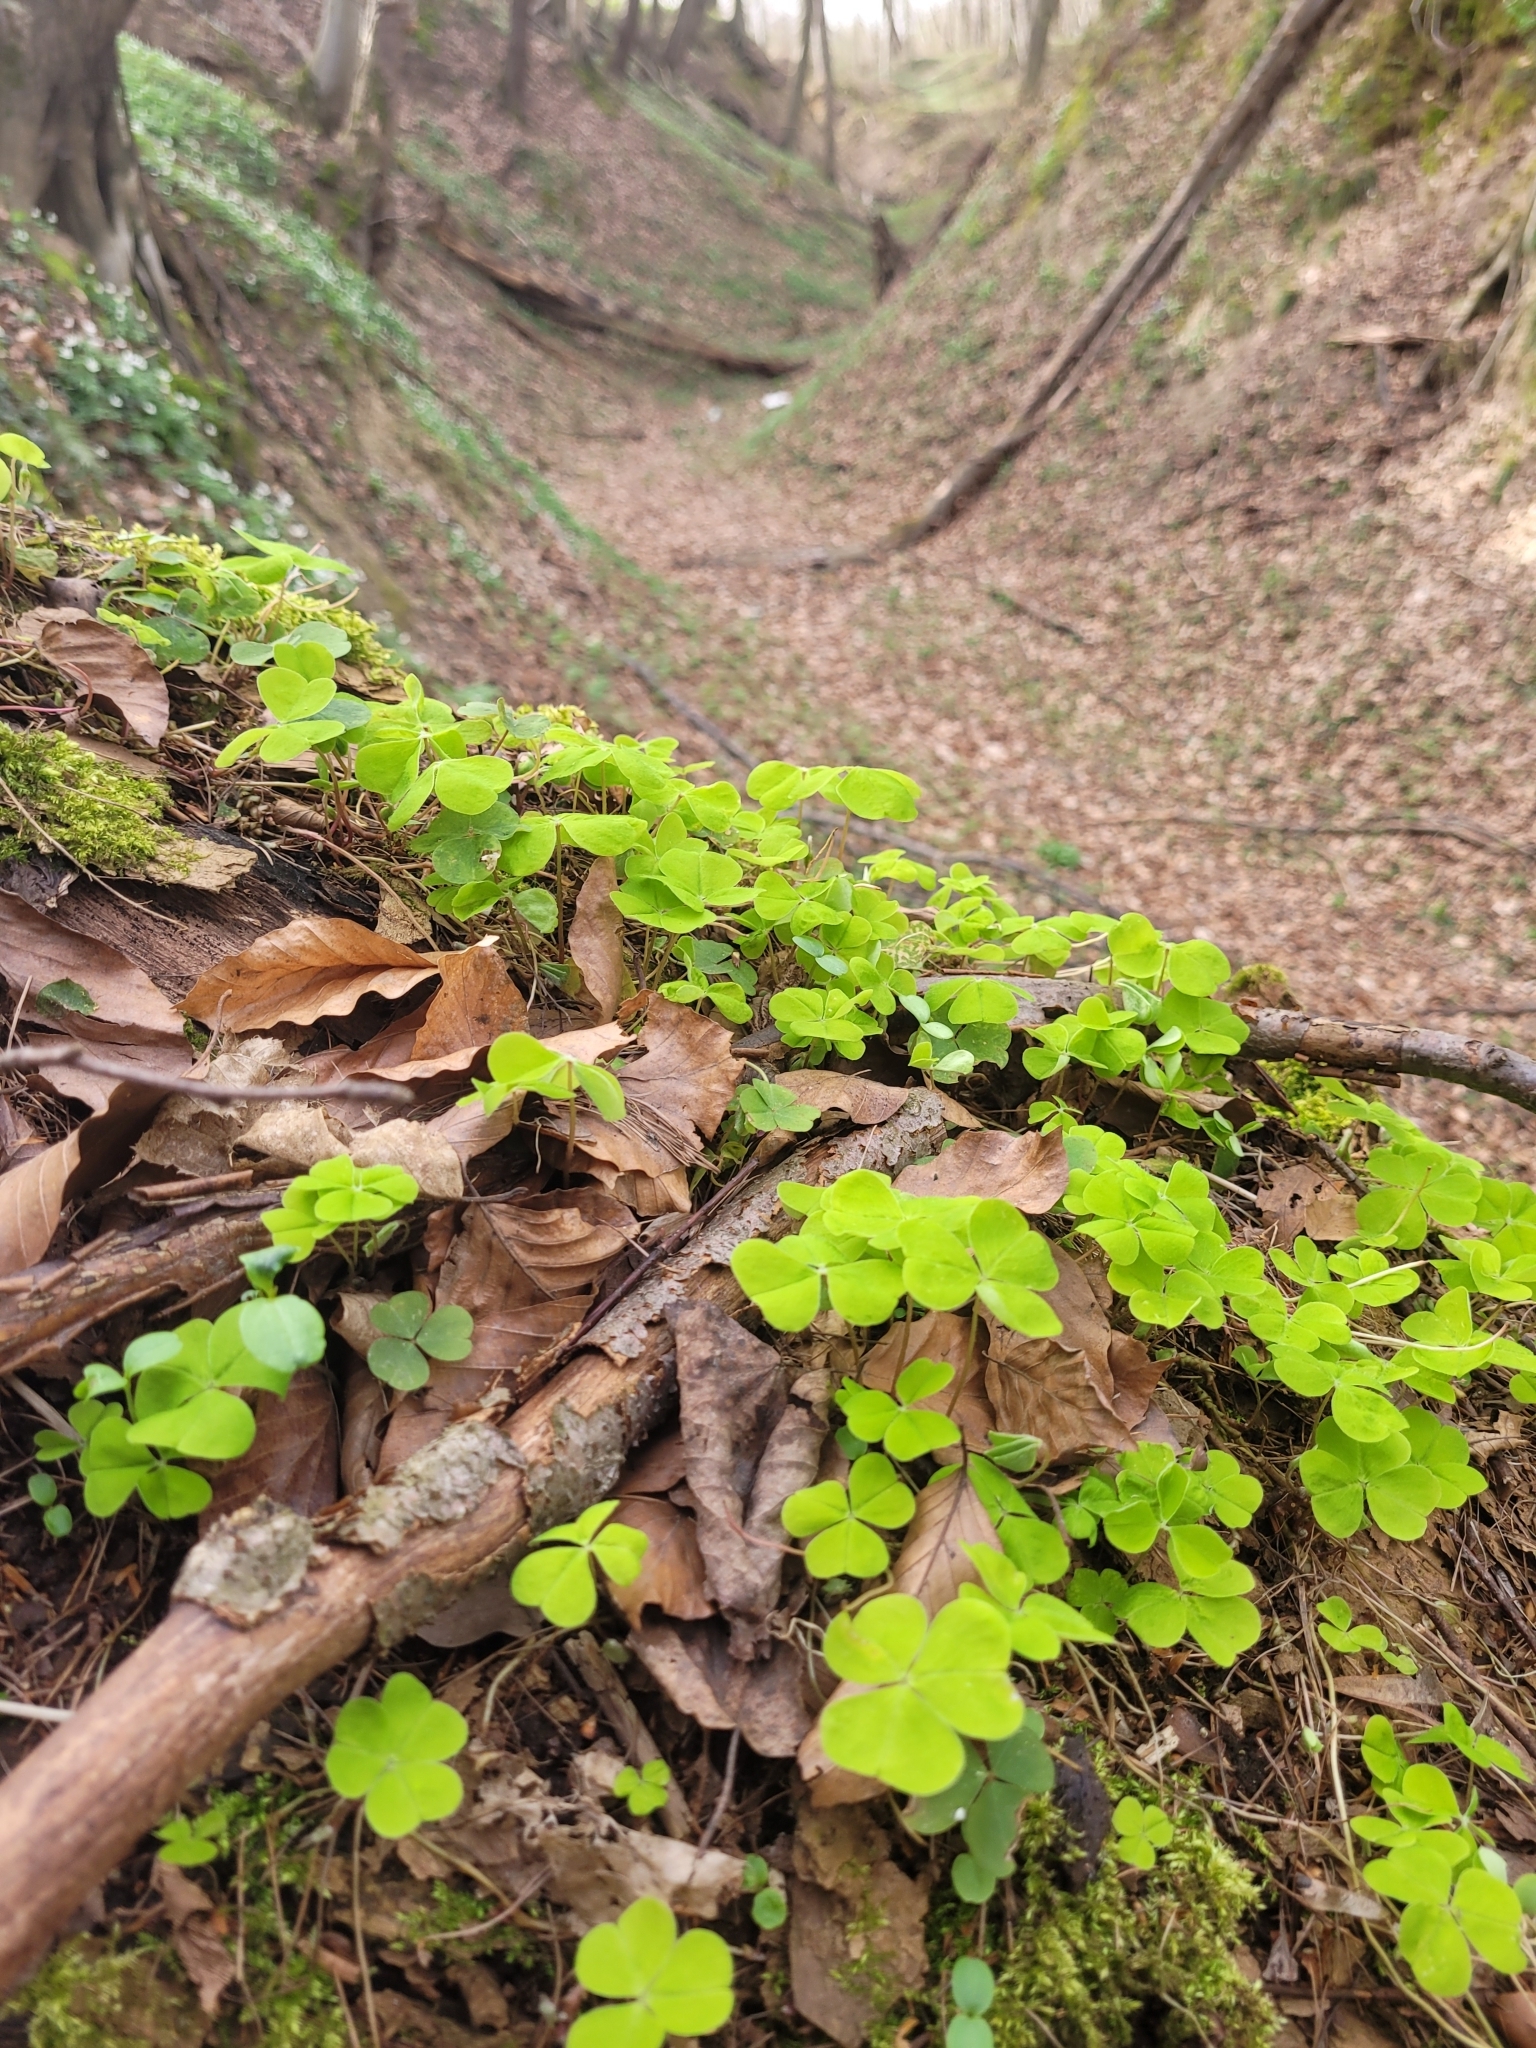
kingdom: Plantae
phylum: Tracheophyta
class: Magnoliopsida
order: Oxalidales
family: Oxalidaceae
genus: Oxalis
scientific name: Oxalis acetosella
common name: Wood-sorrel
